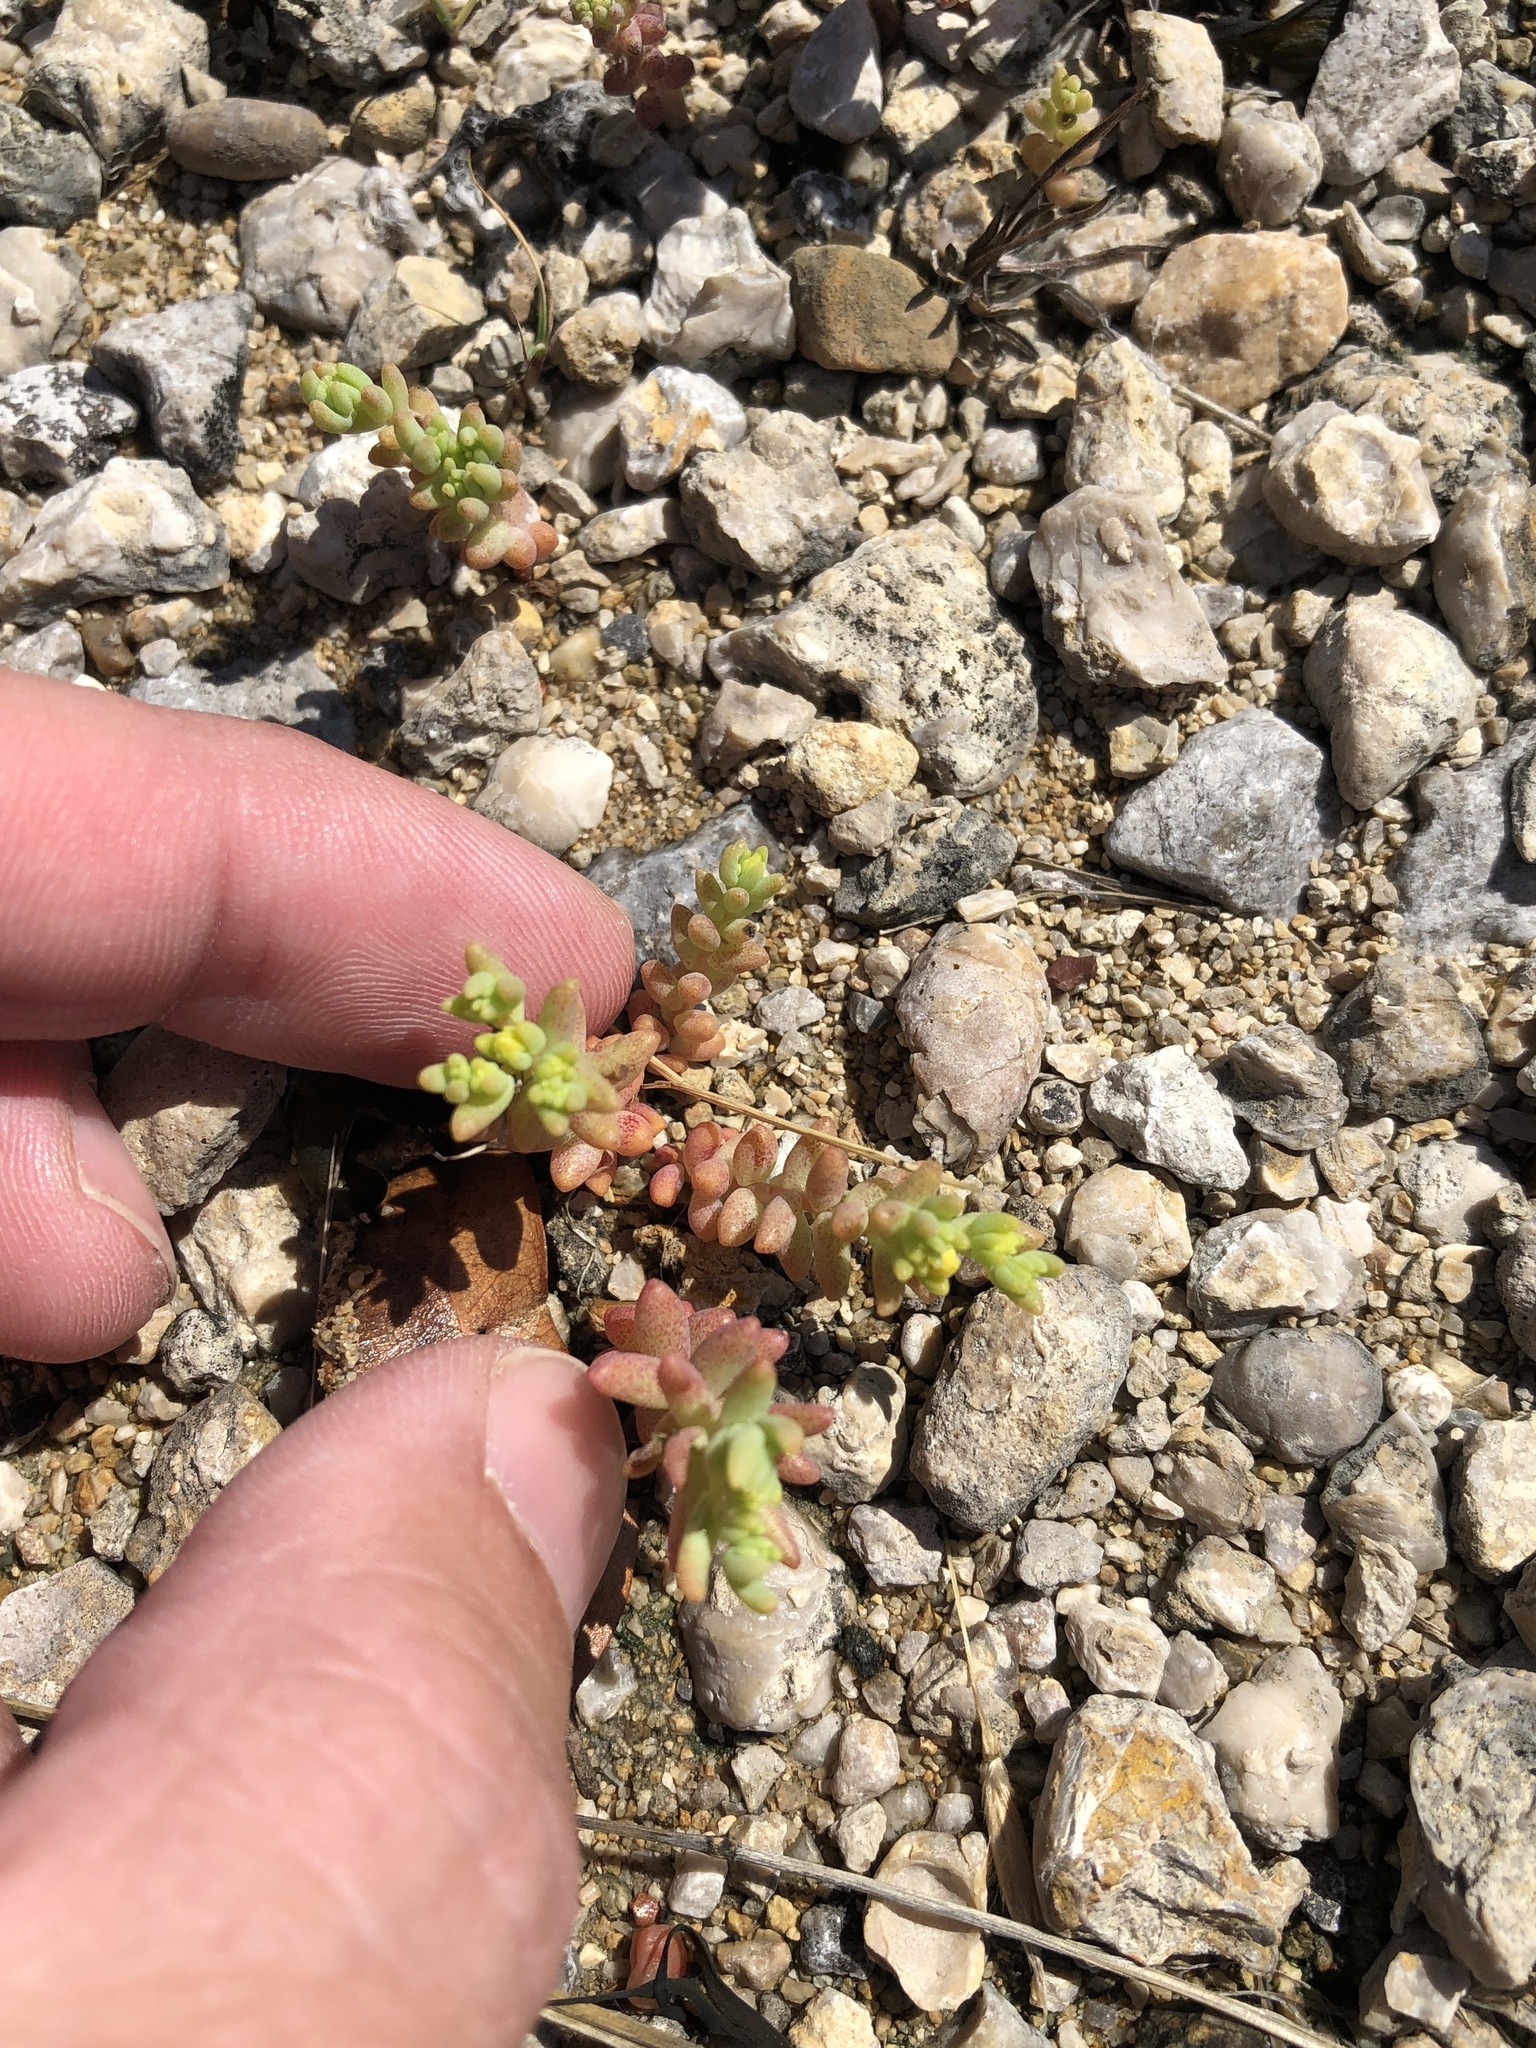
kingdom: Plantae
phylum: Tracheophyta
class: Magnoliopsida
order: Saxifragales
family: Crassulaceae
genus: Sedum
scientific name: Sedum nuttallii
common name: Yellow stonecrop
